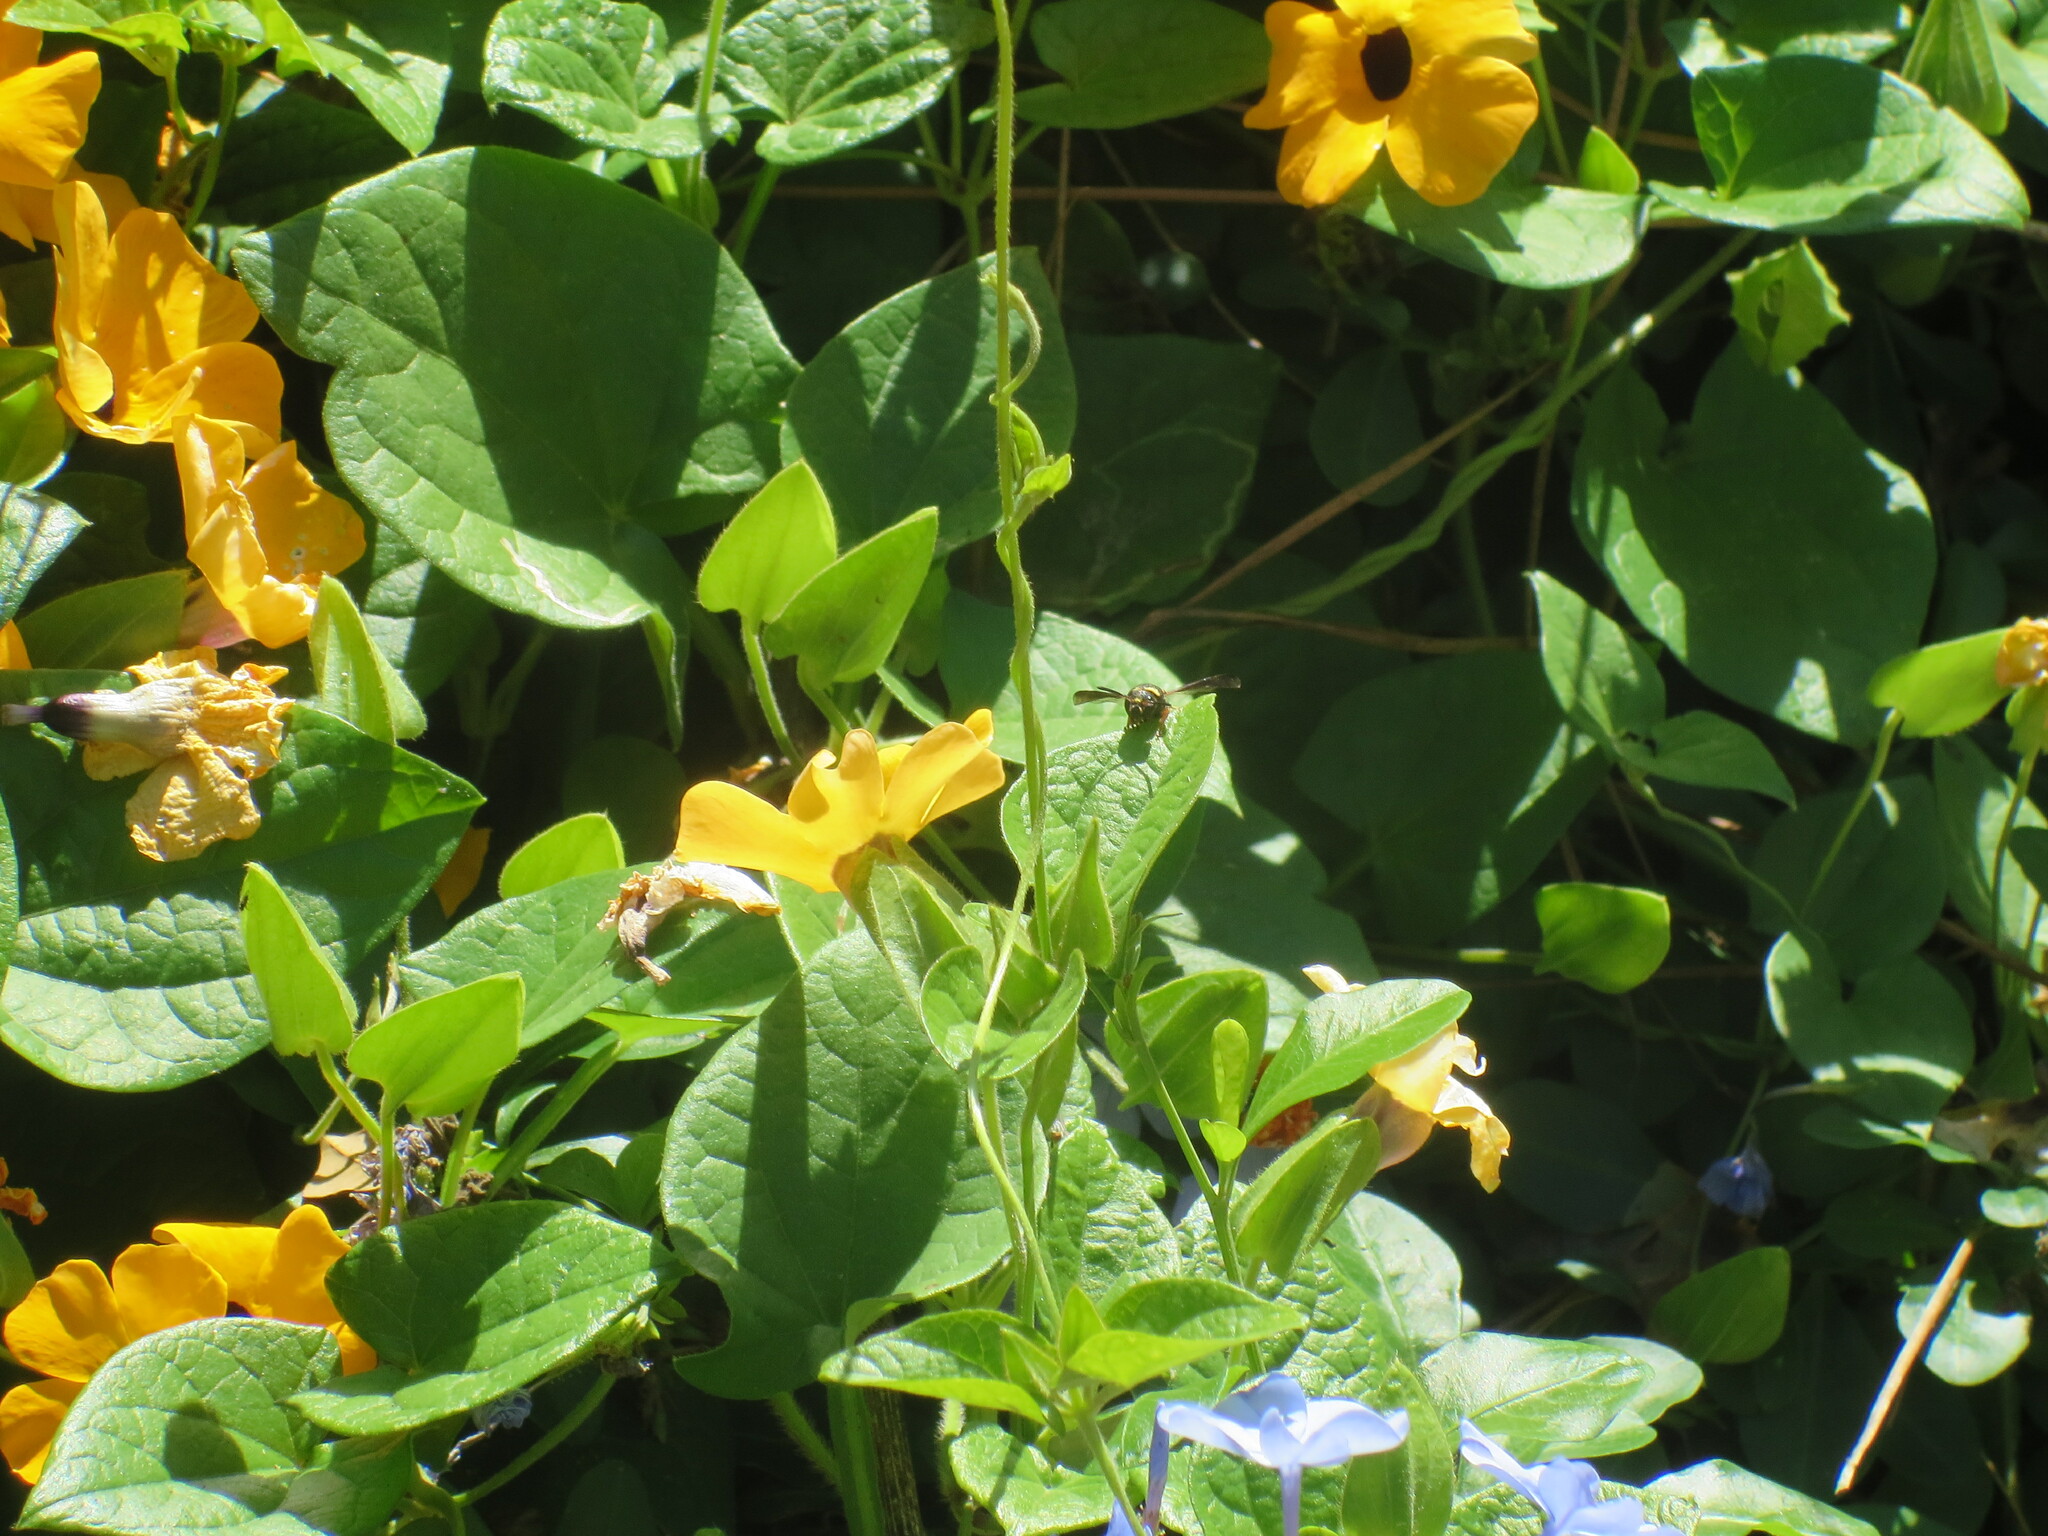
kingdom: Animalia
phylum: Arthropoda
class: Insecta
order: Hymenoptera
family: Eumenidae
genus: Parancistrocerus
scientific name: Parancistrocerus
